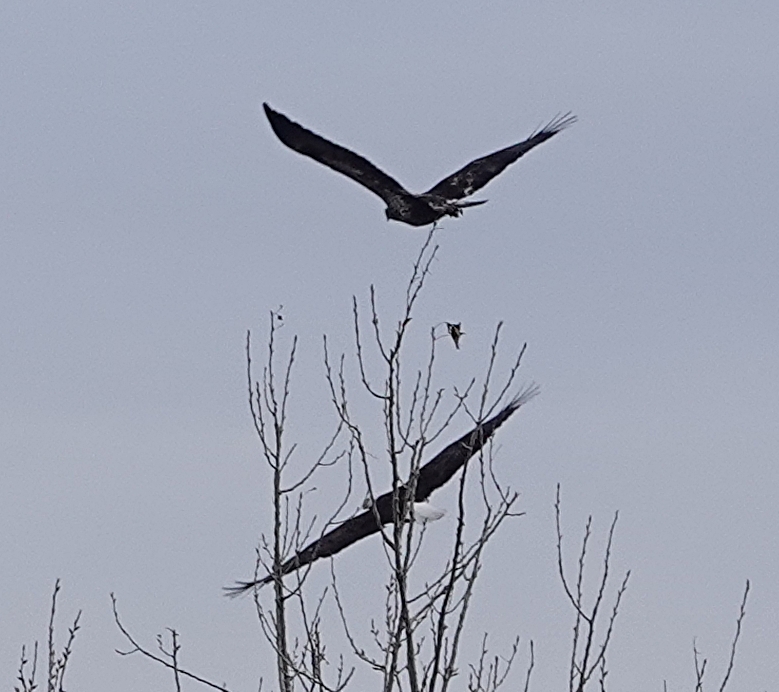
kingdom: Animalia
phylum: Chordata
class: Aves
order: Accipitriformes
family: Accipitridae
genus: Haliaeetus
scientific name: Haliaeetus leucocephalus
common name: Bald eagle
